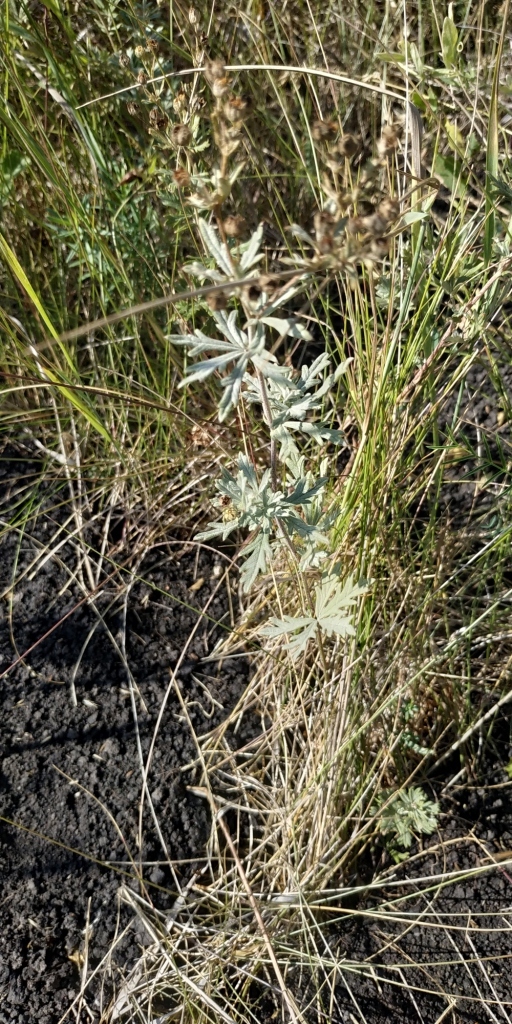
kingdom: Plantae
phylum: Tracheophyta
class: Magnoliopsida
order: Rosales
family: Rosaceae
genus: Potentilla
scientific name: Potentilla argentea
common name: Hoary cinquefoil
